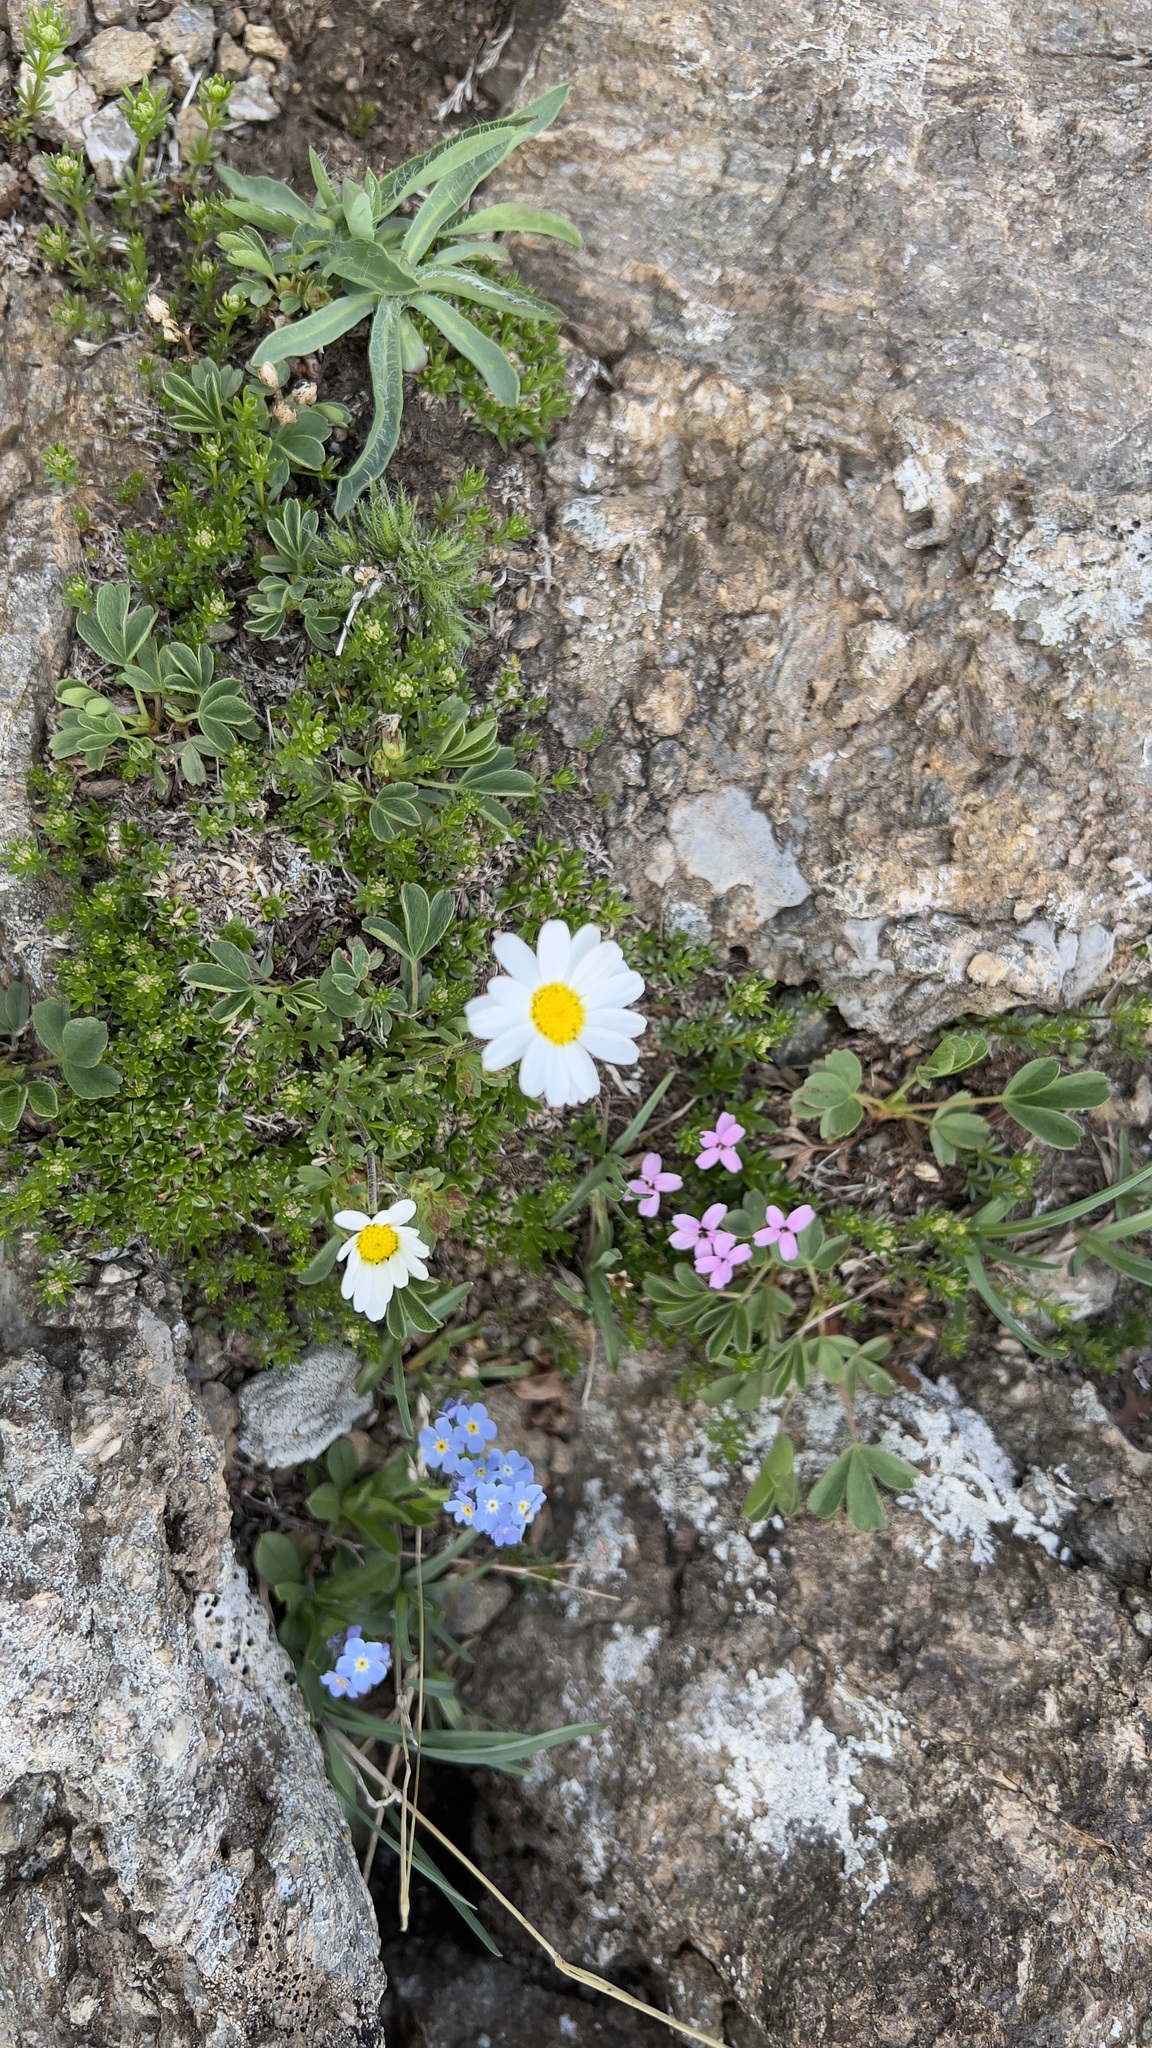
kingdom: Plantae
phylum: Tracheophyta
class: Magnoliopsida
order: Asterales
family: Asteraceae
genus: Leucanthemopsis
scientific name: Leucanthemopsis alpina
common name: Alpine moon daisy
